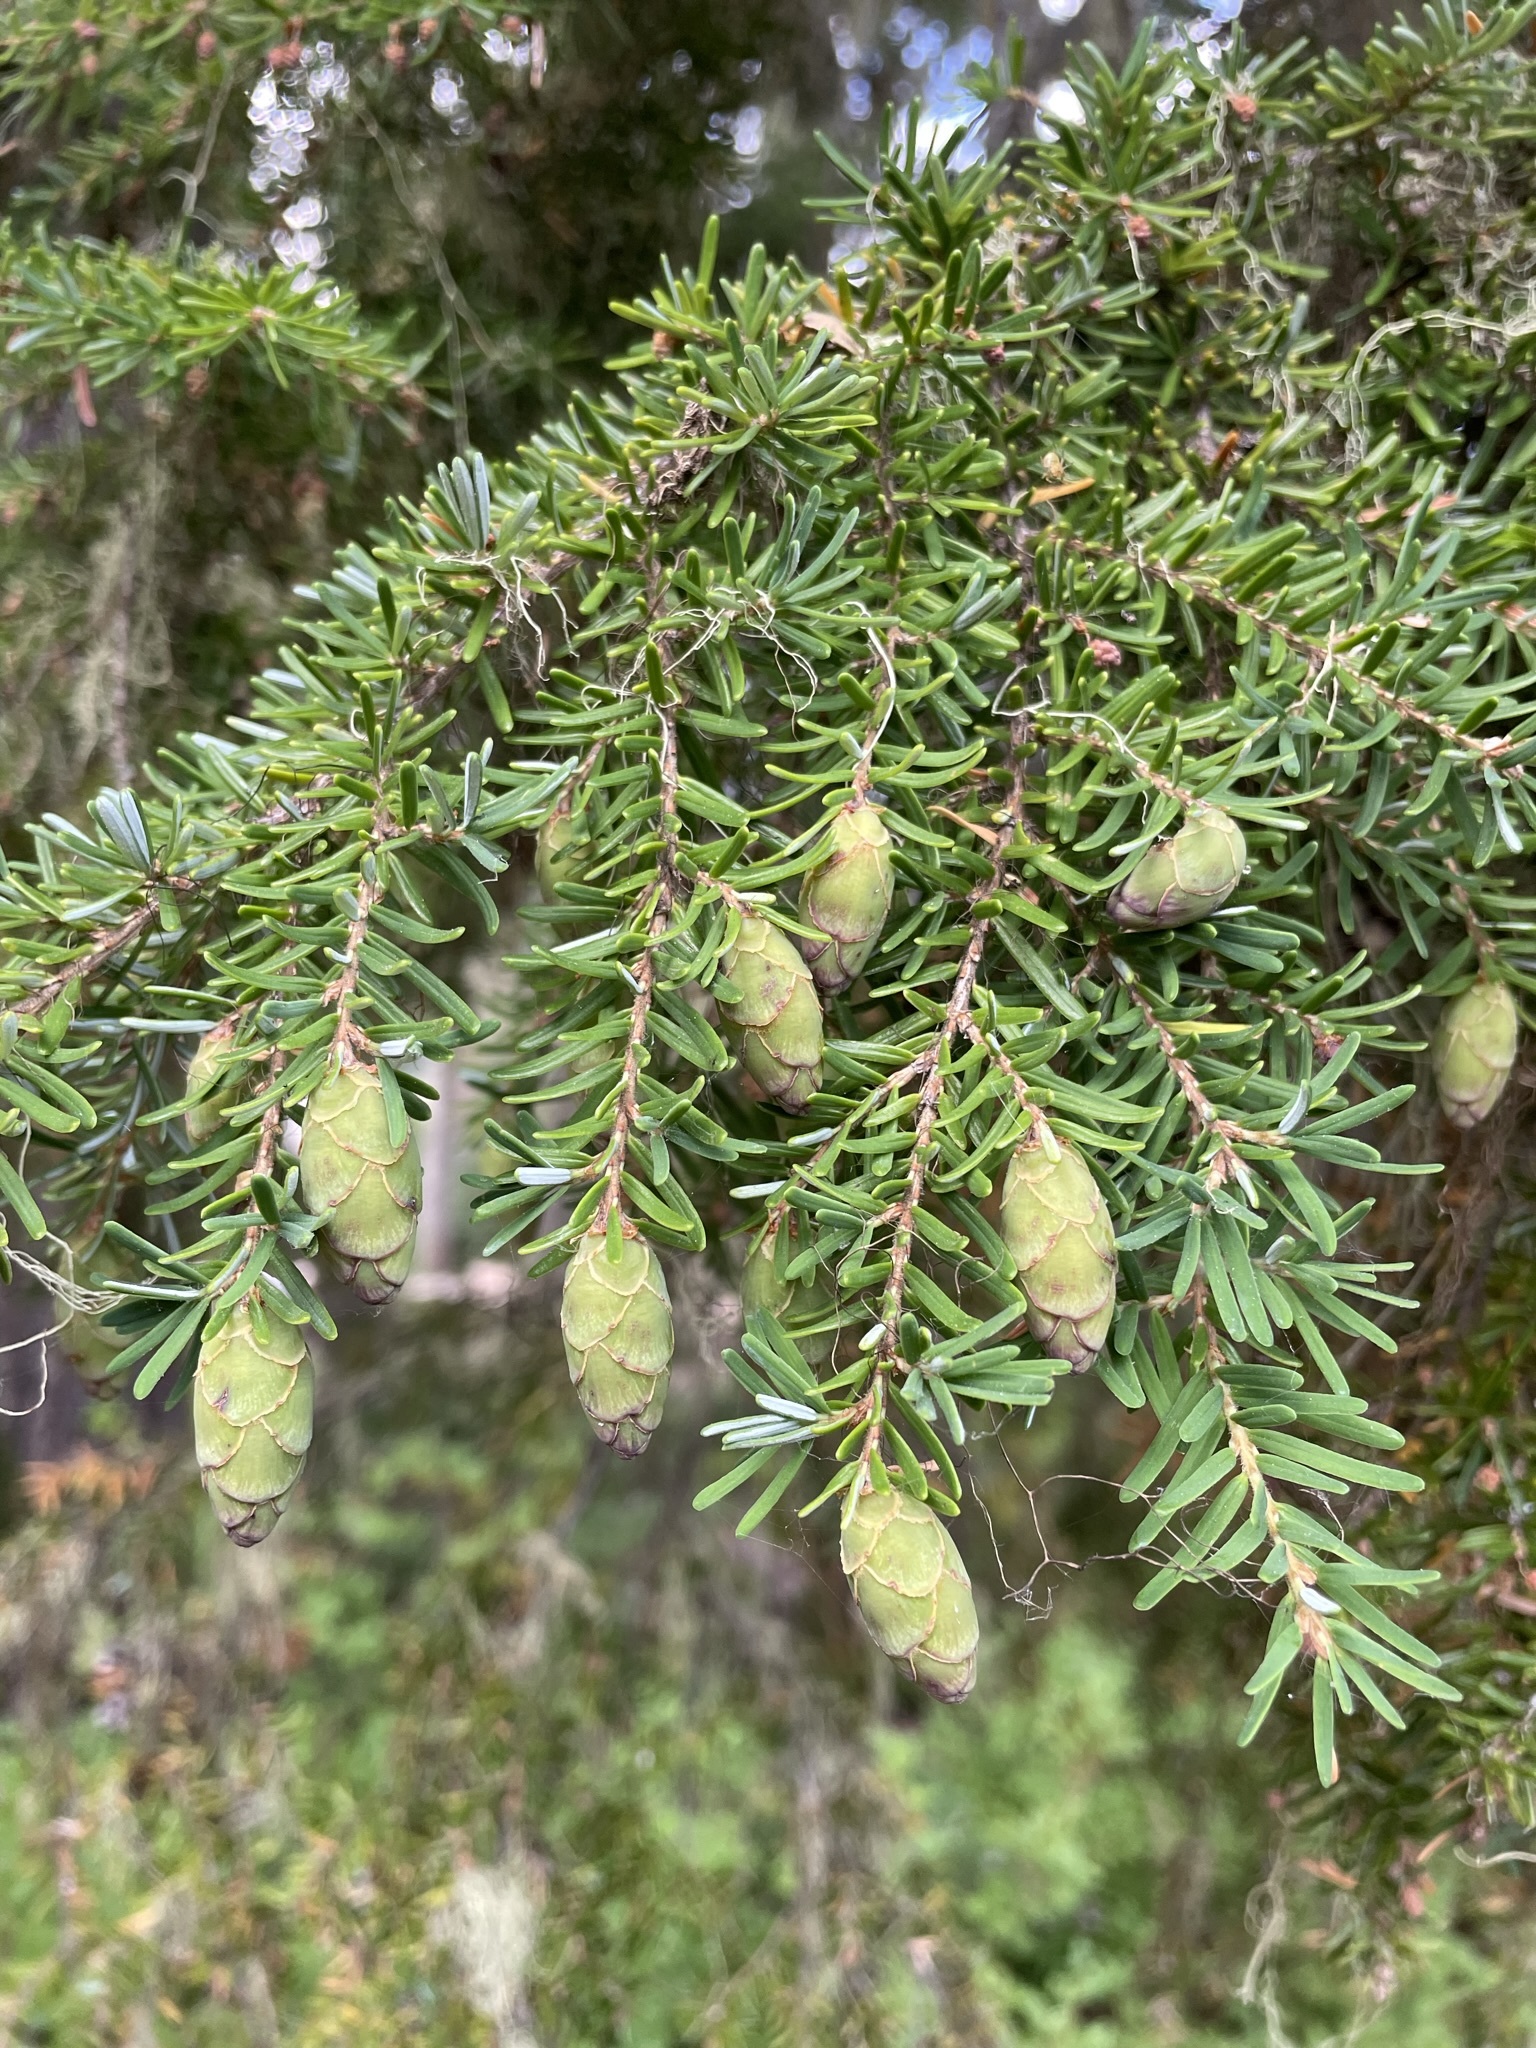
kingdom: Plantae
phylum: Tracheophyta
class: Pinopsida
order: Pinales
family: Pinaceae
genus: Tsuga
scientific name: Tsuga heterophylla
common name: Western hemlock
